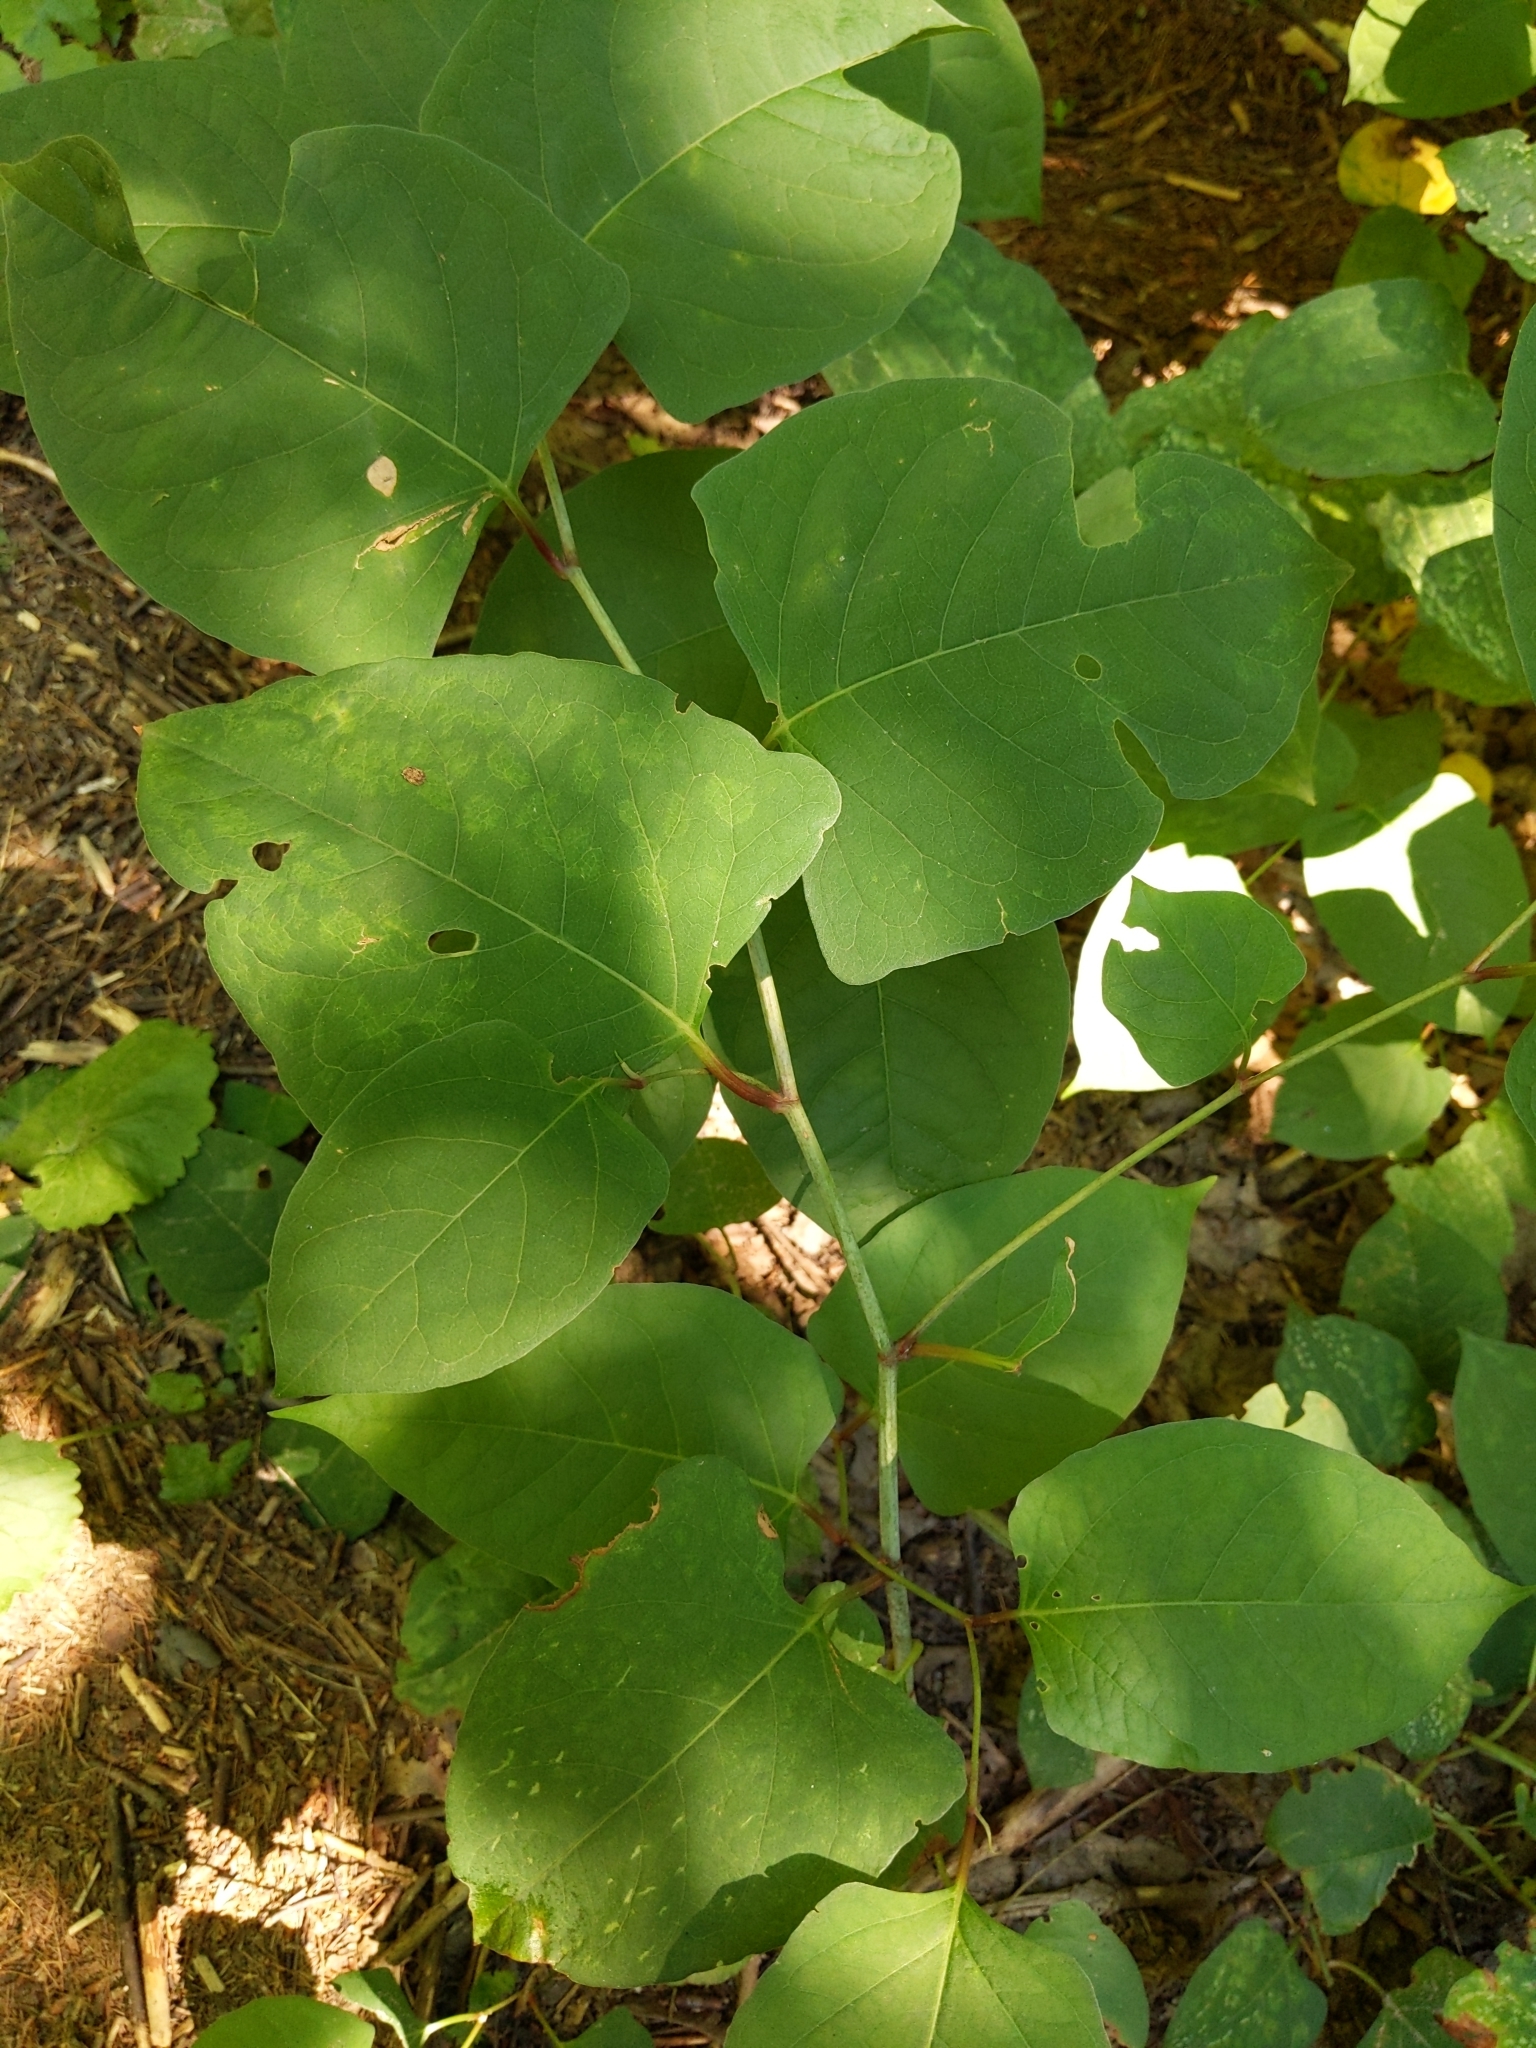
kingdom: Plantae
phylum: Tracheophyta
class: Magnoliopsida
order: Caryophyllales
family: Polygonaceae
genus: Reynoutria
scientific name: Reynoutria japonica
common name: Japanese knotweed
